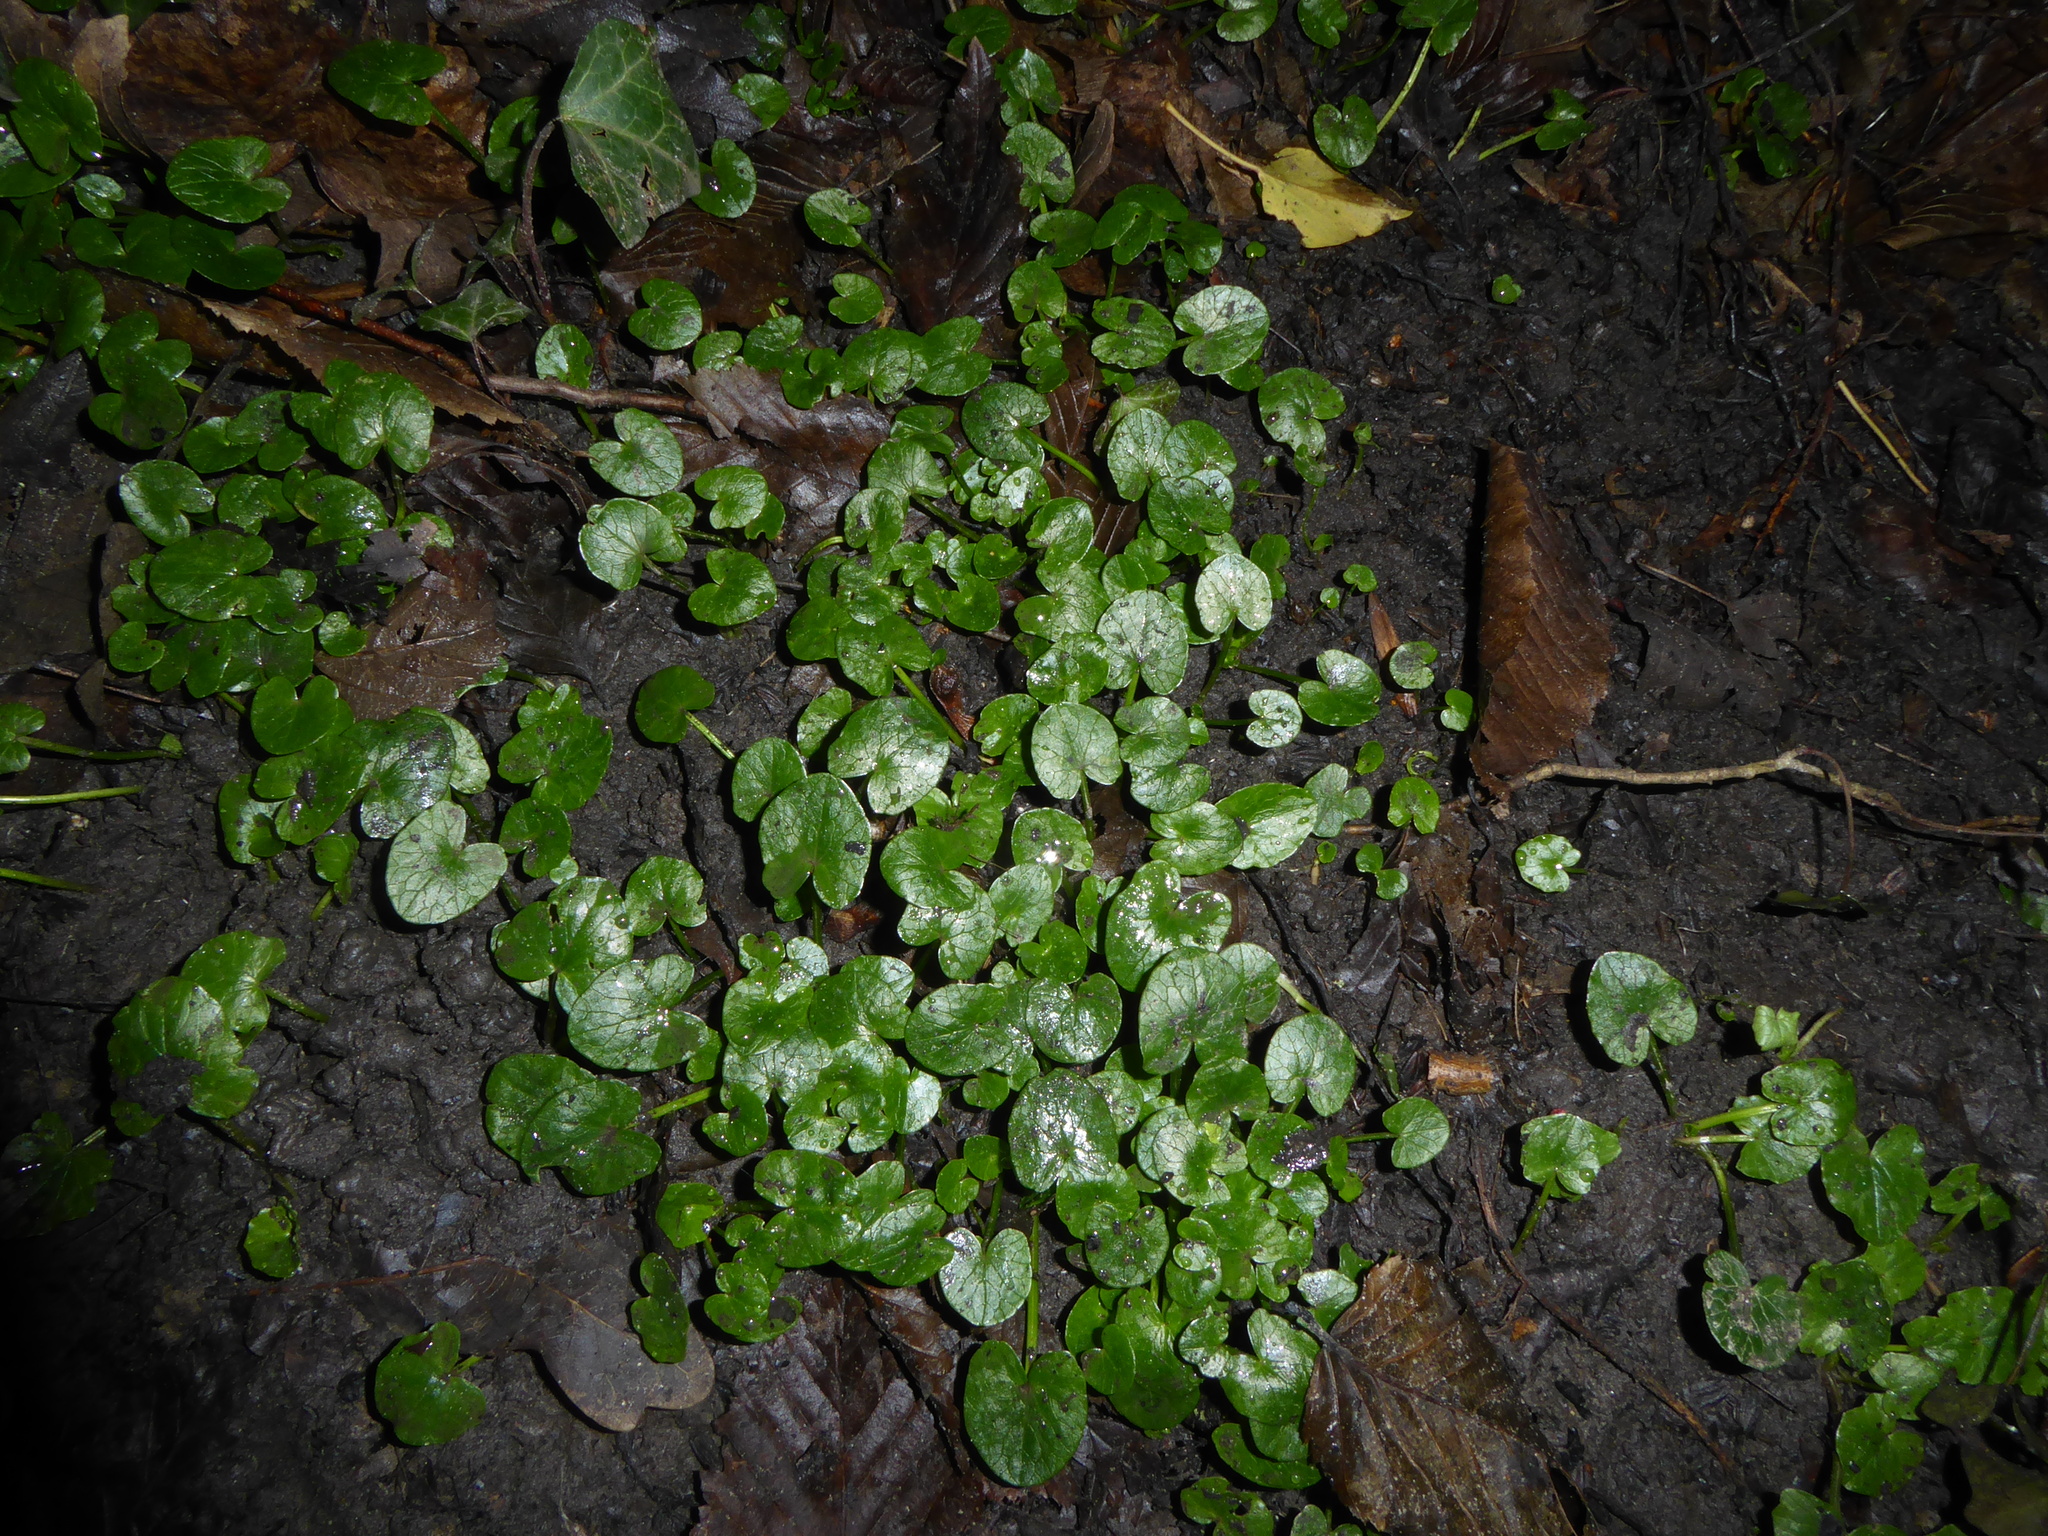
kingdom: Plantae
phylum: Tracheophyta
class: Magnoliopsida
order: Ranunculales
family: Ranunculaceae
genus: Ficaria
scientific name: Ficaria verna
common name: Lesser celandine
